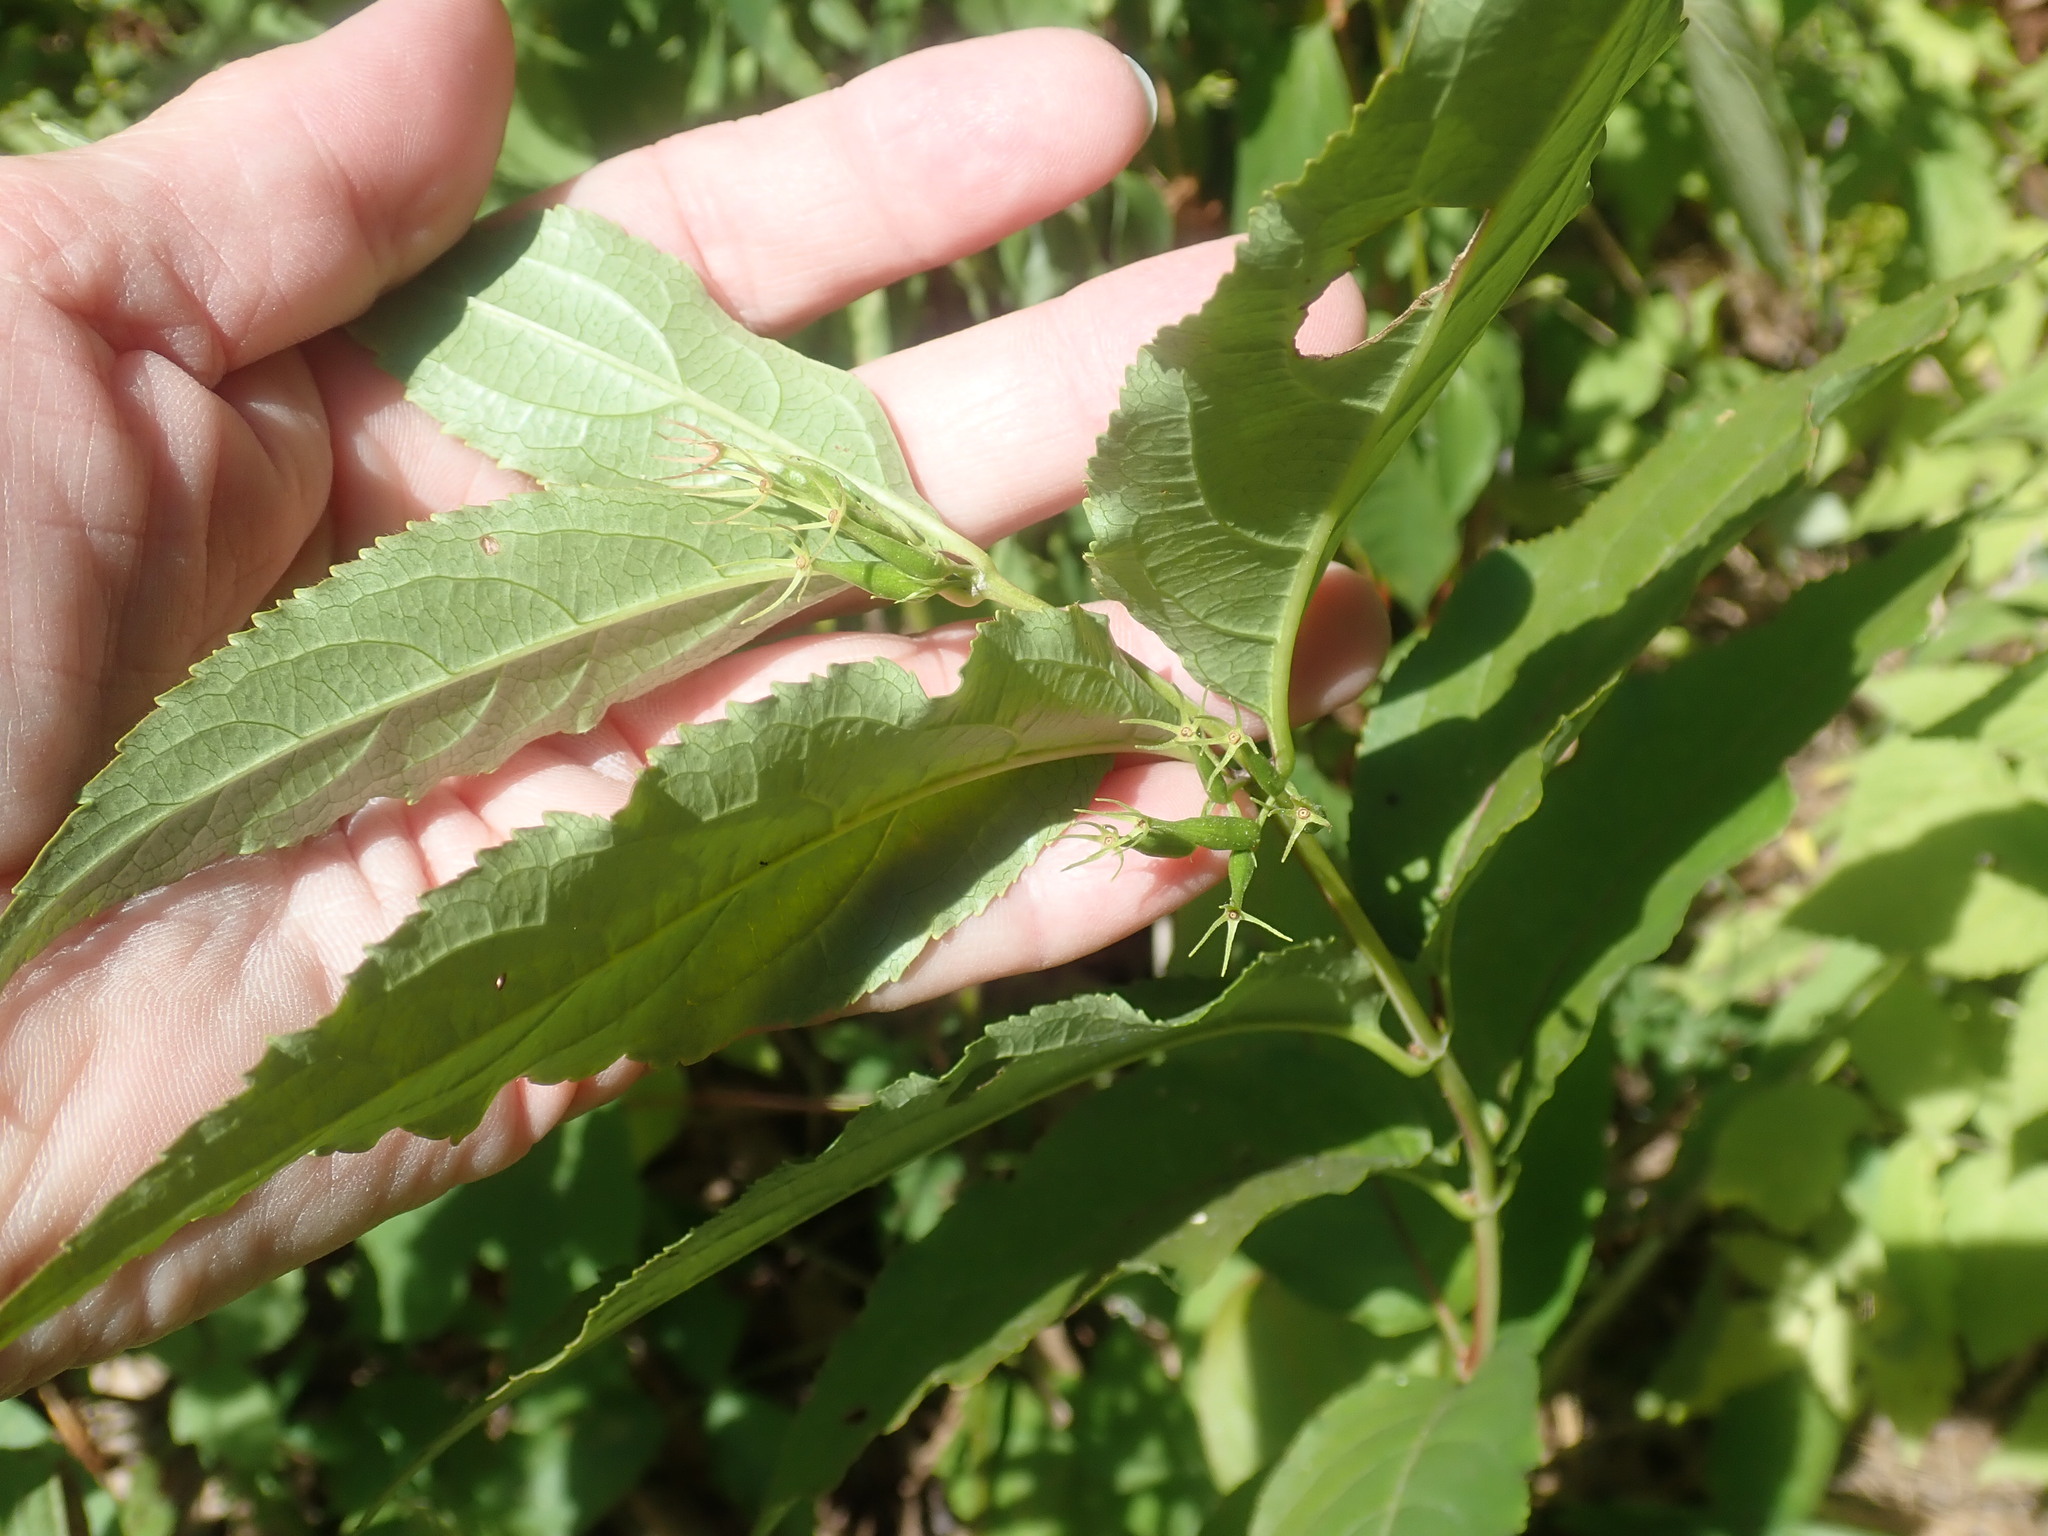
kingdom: Plantae
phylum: Tracheophyta
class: Magnoliopsida
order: Dipsacales
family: Caprifoliaceae
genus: Diervilla
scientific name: Diervilla lonicera
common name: Bush-honeysuckle
